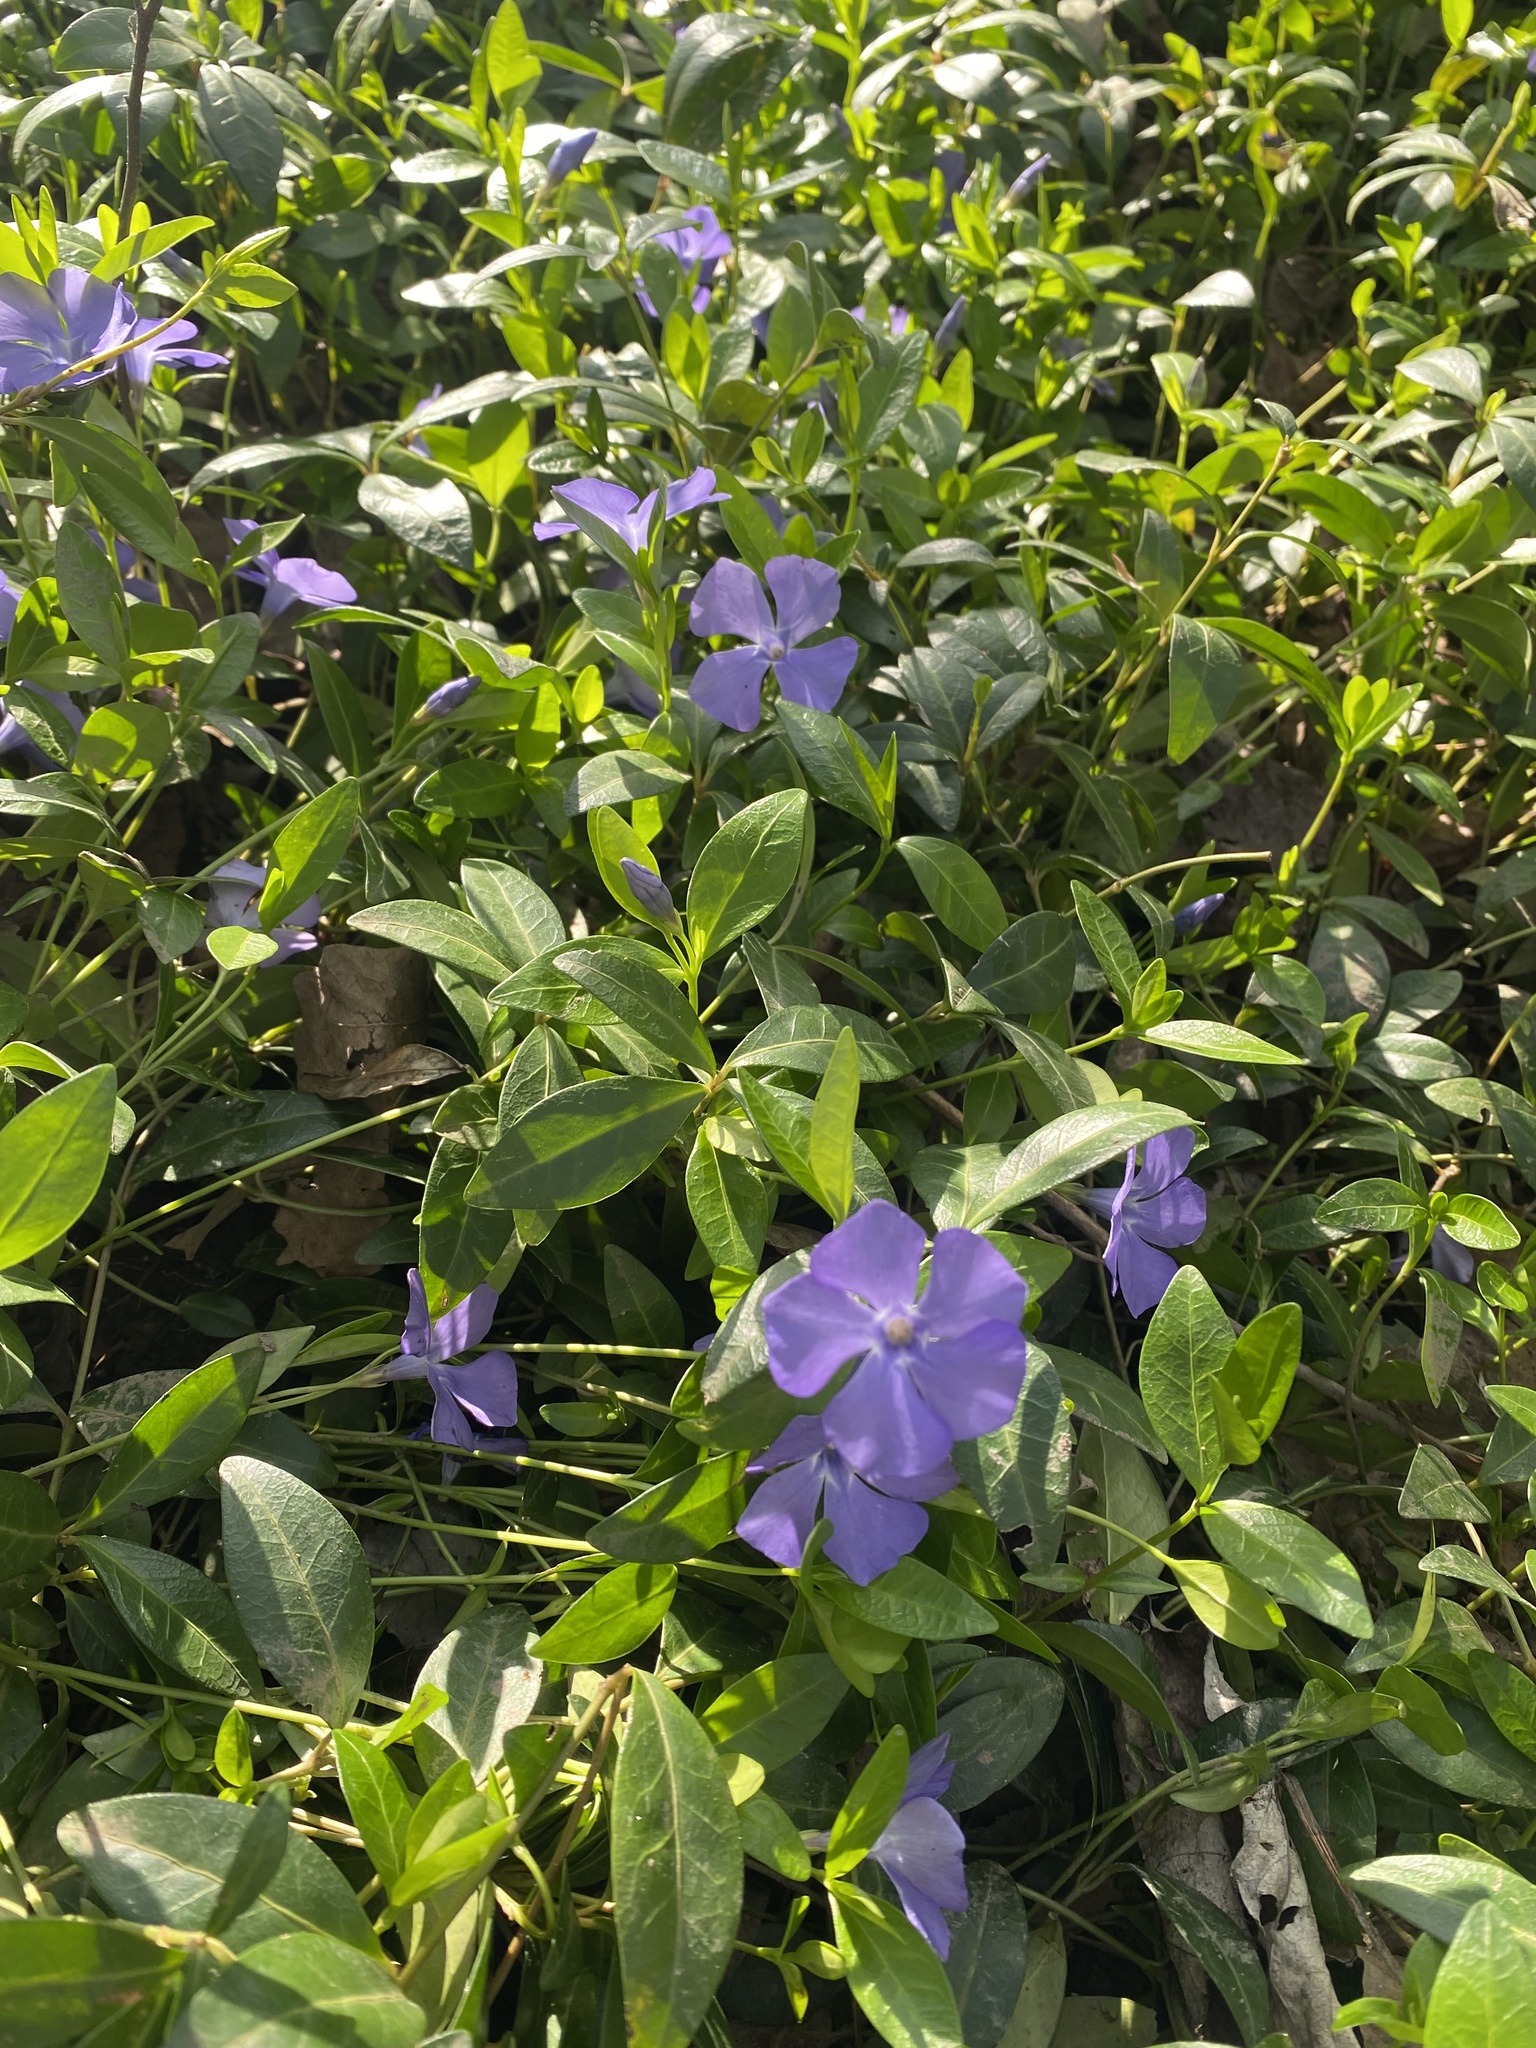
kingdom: Plantae
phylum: Tracheophyta
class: Magnoliopsida
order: Gentianales
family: Apocynaceae
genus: Vinca
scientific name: Vinca minor
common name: Lesser periwinkle
